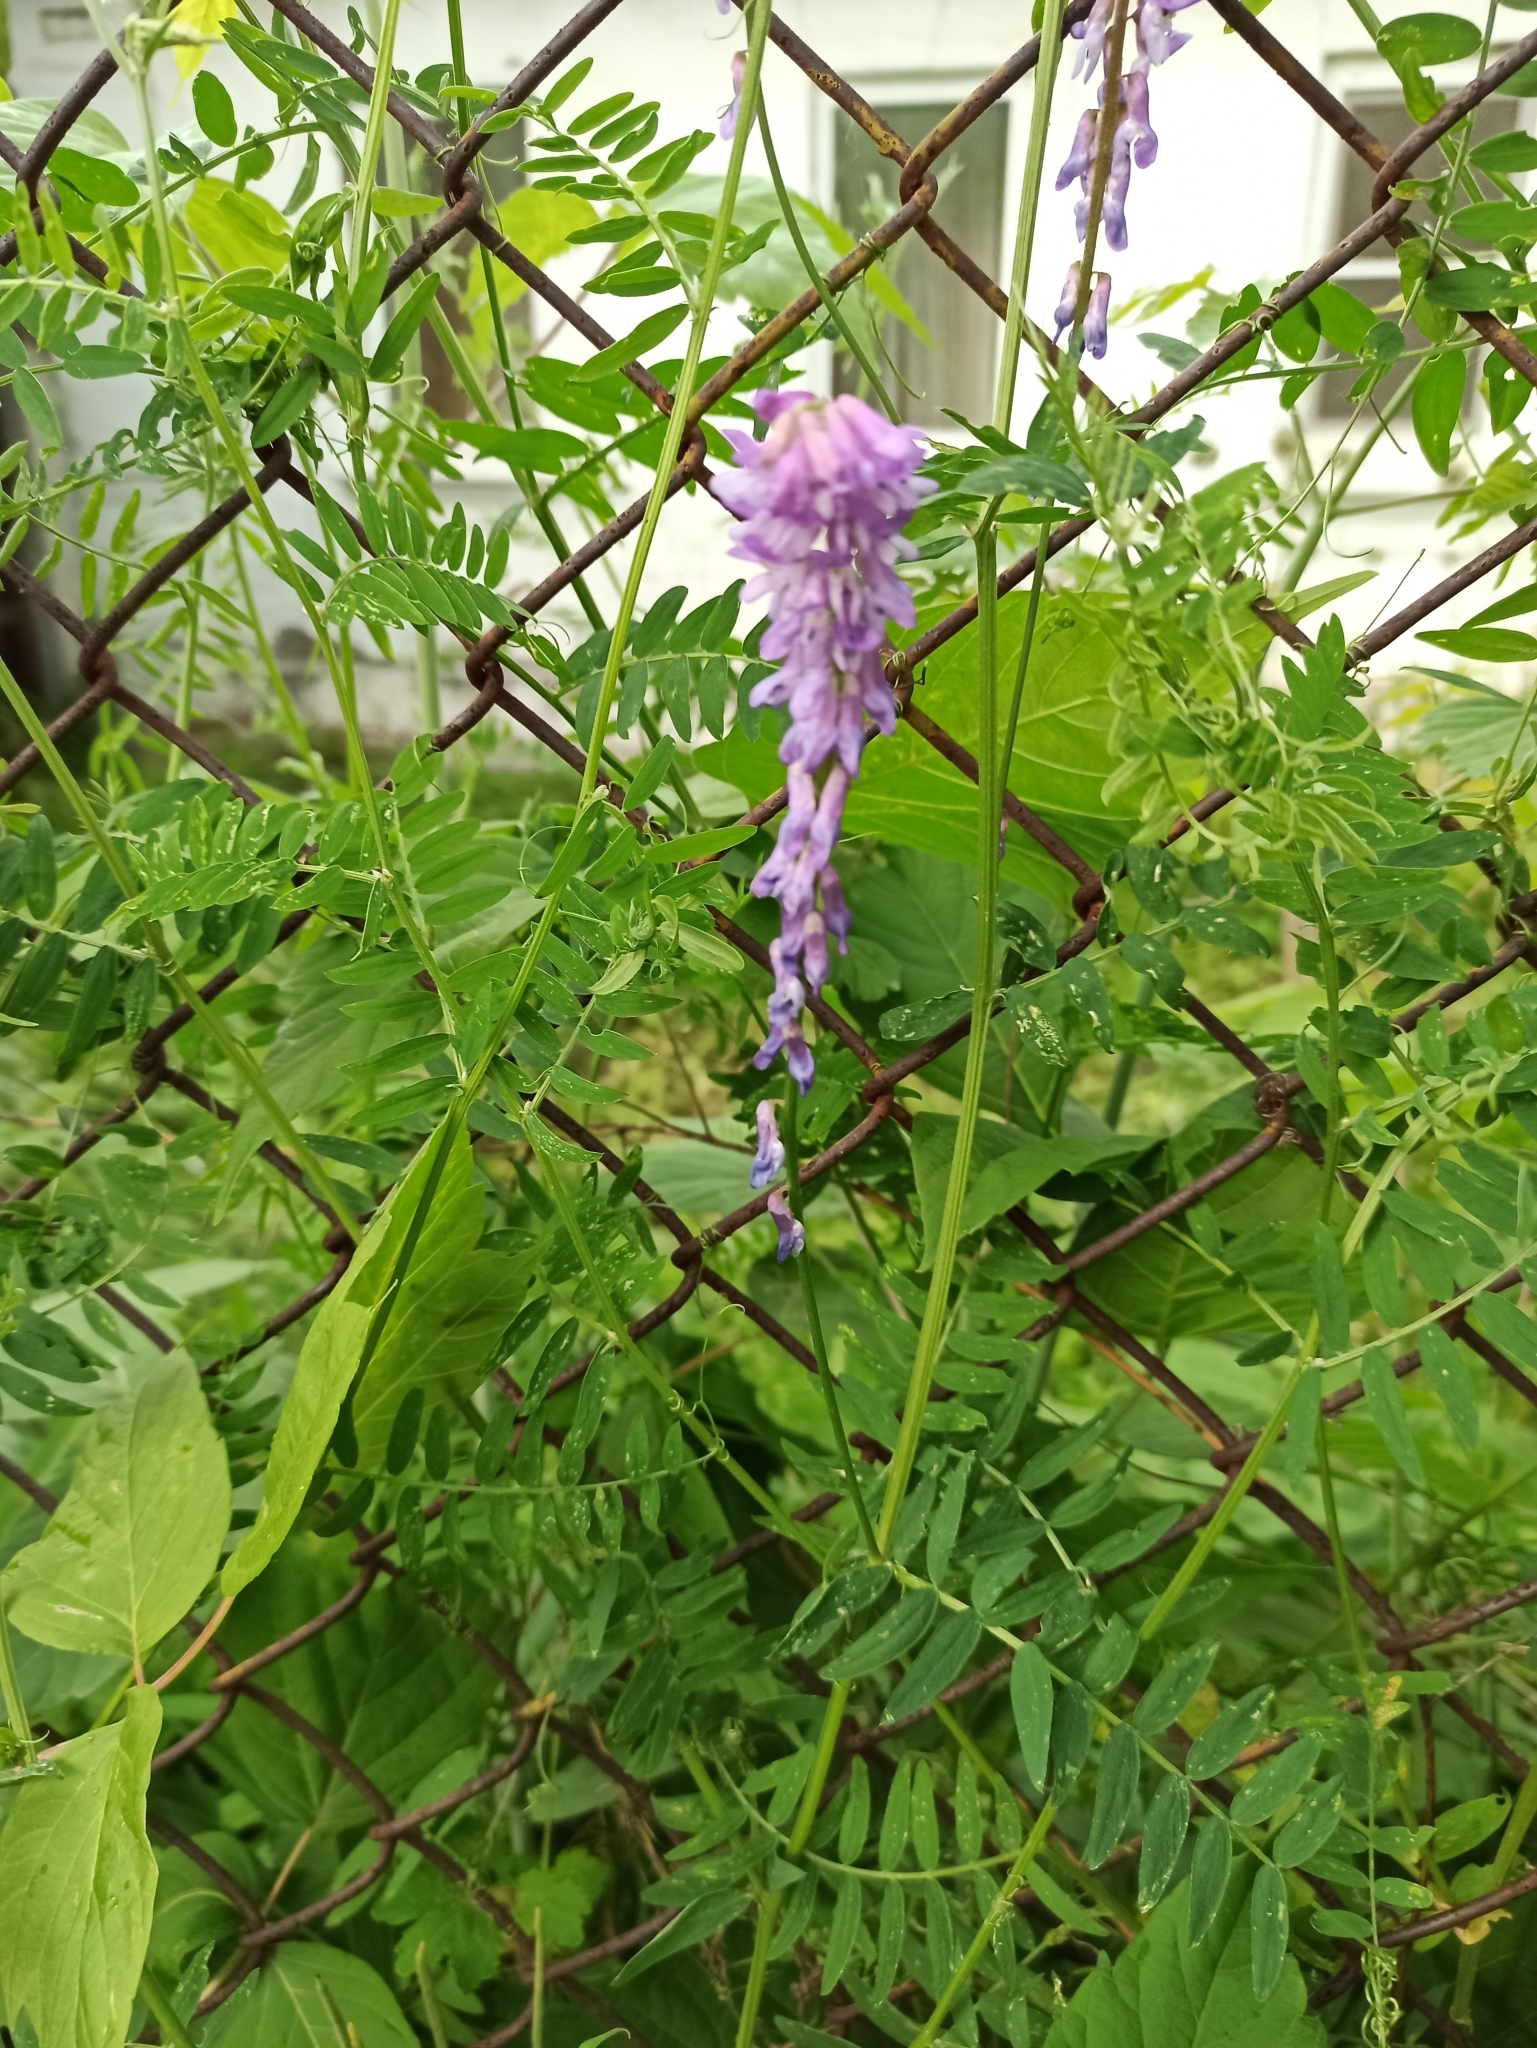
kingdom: Plantae
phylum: Tracheophyta
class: Magnoliopsida
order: Fabales
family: Fabaceae
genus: Vicia
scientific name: Vicia cracca
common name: Bird vetch
